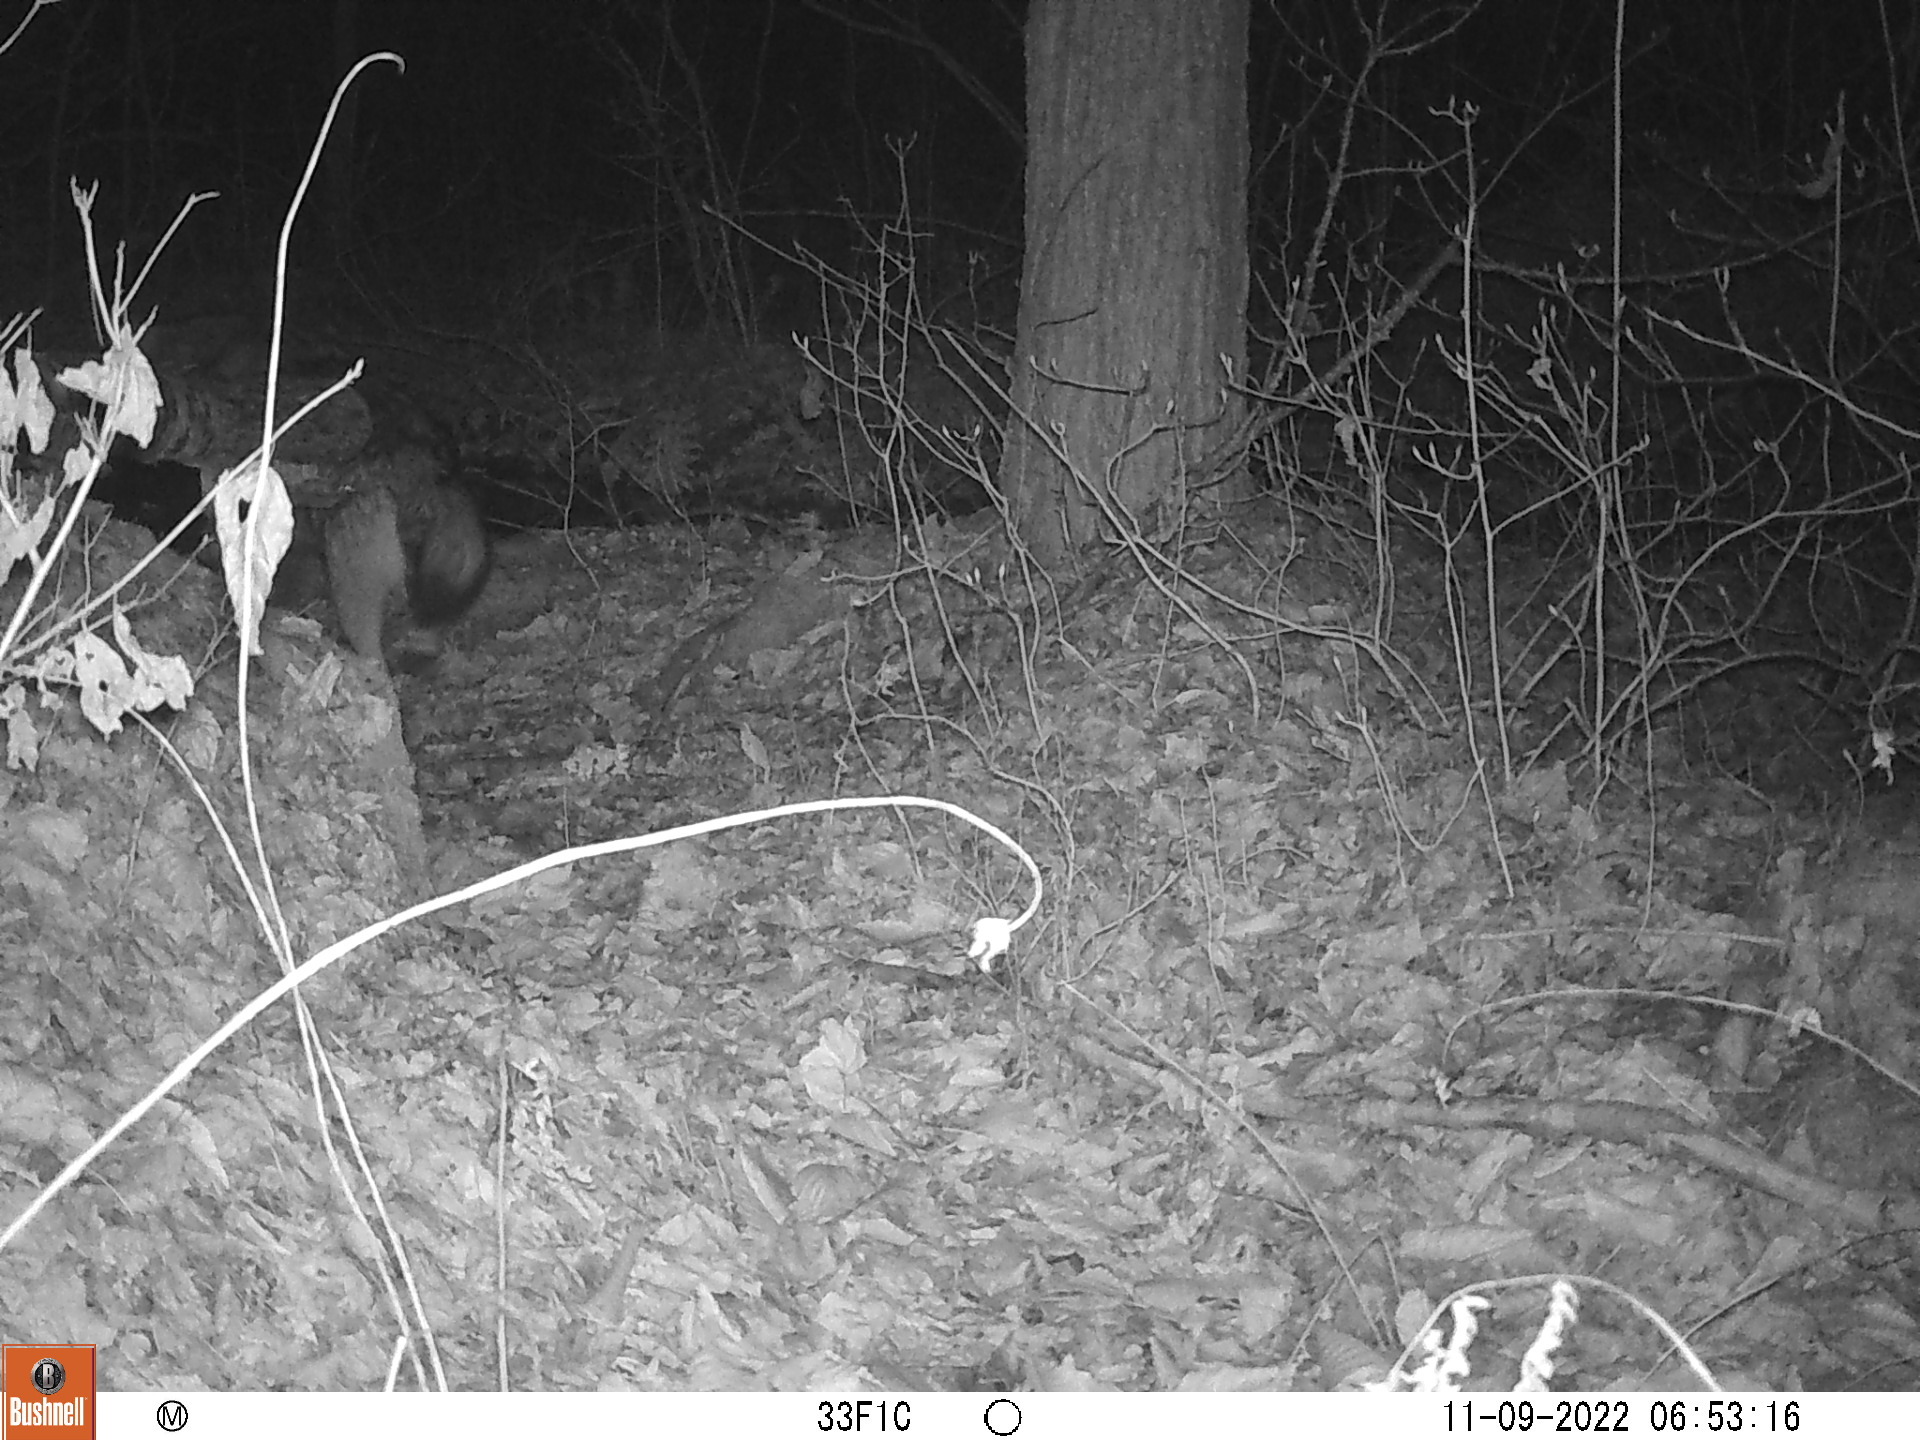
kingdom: Animalia
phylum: Chordata
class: Mammalia
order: Carnivora
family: Canidae
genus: Canis
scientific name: Canis latrans
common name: Coyote
